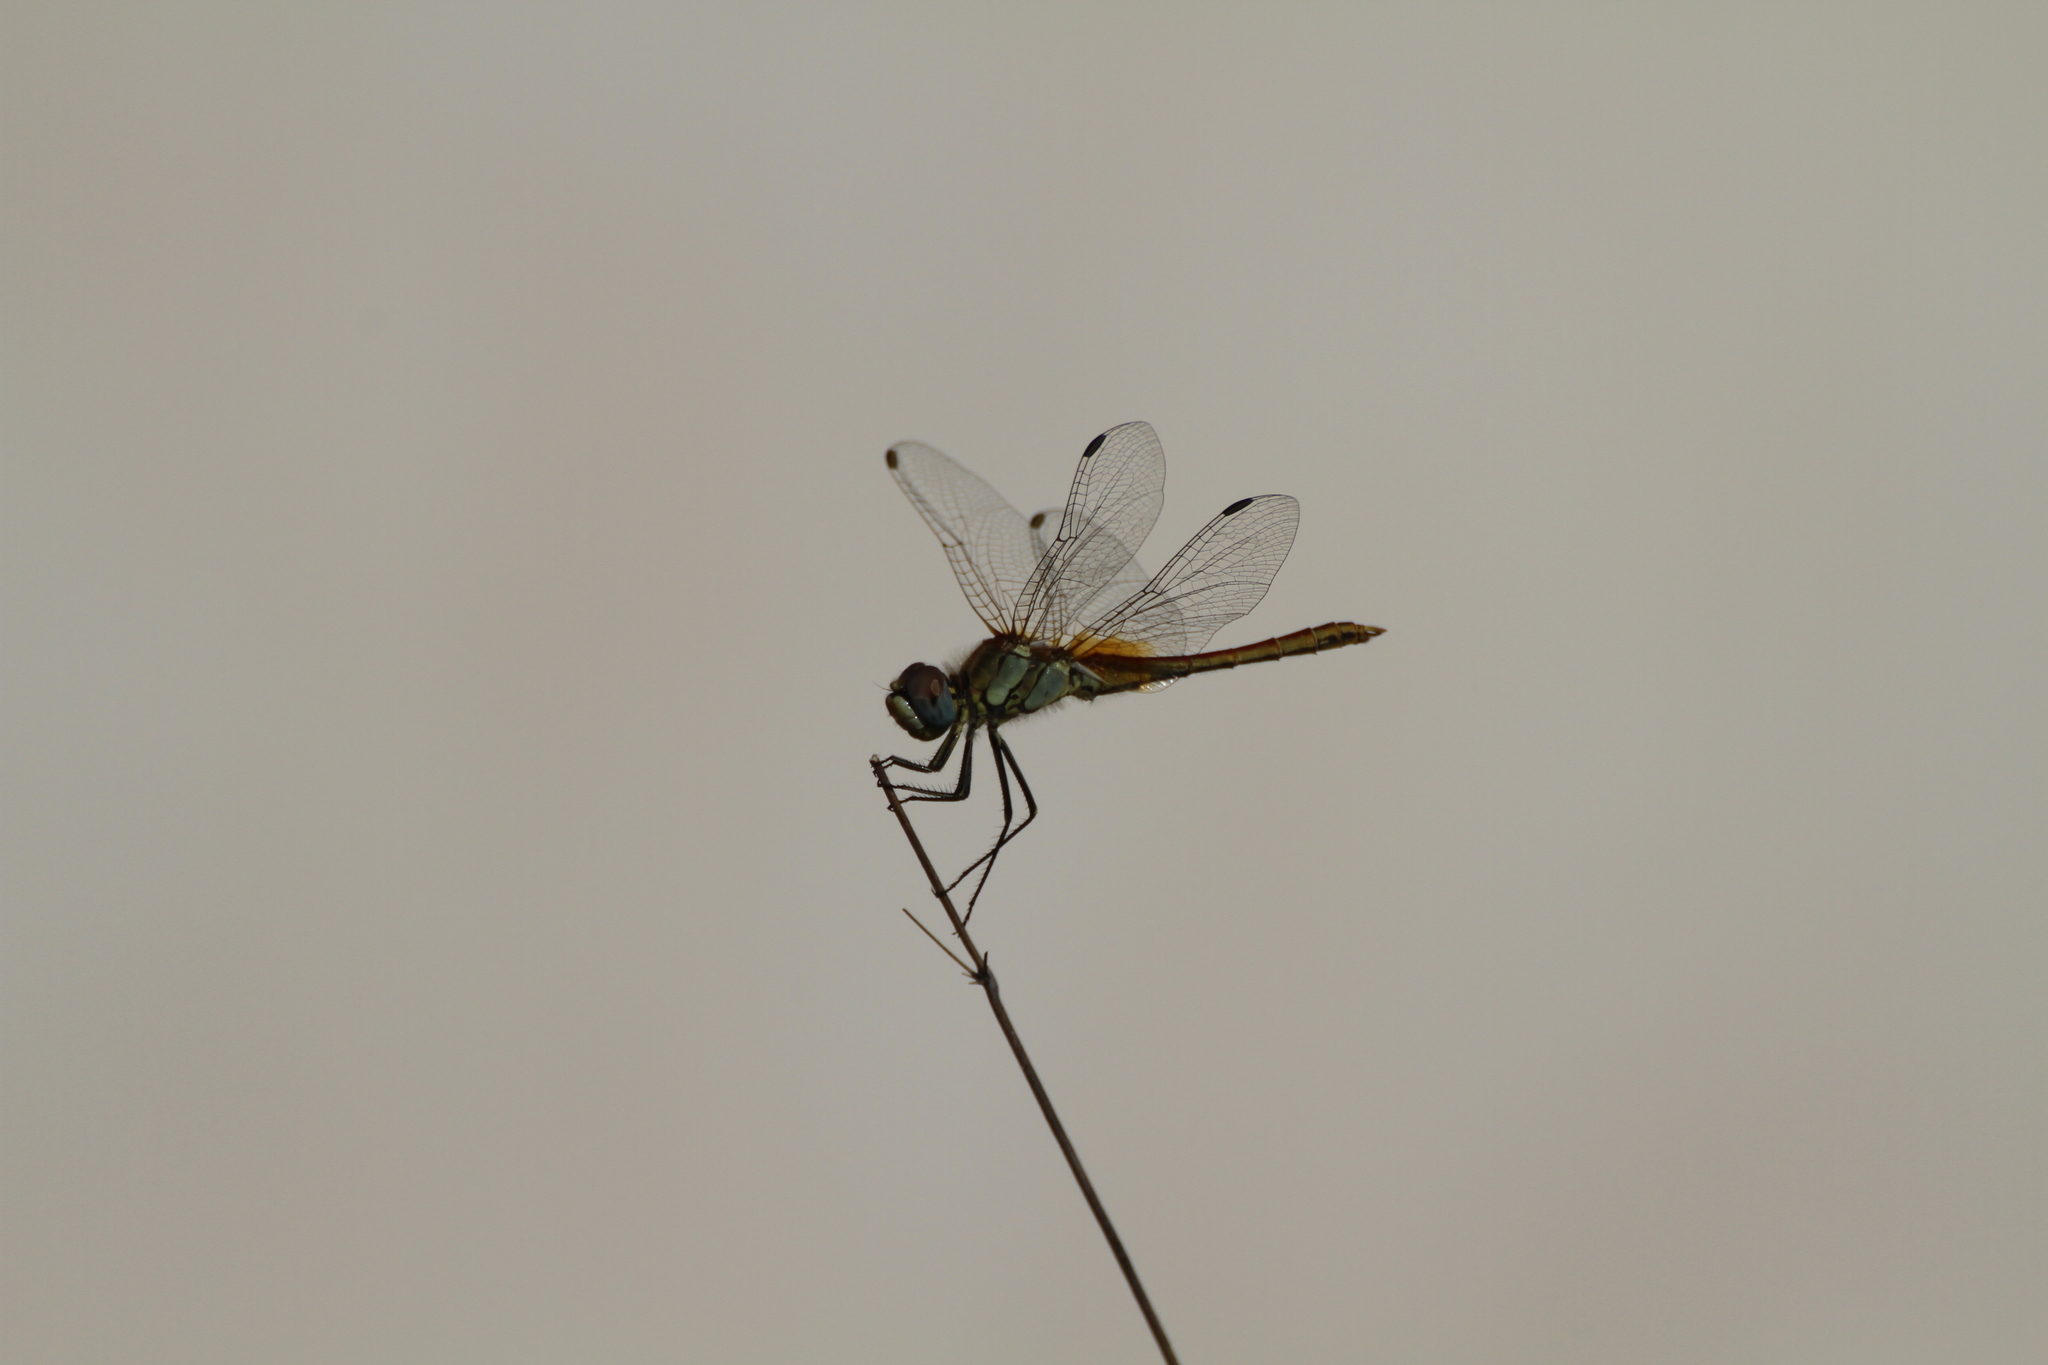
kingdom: Animalia
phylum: Arthropoda
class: Insecta
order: Odonata
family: Libellulidae
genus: Sympetrum
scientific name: Sympetrum fonscolombii
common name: Red-veined darter
